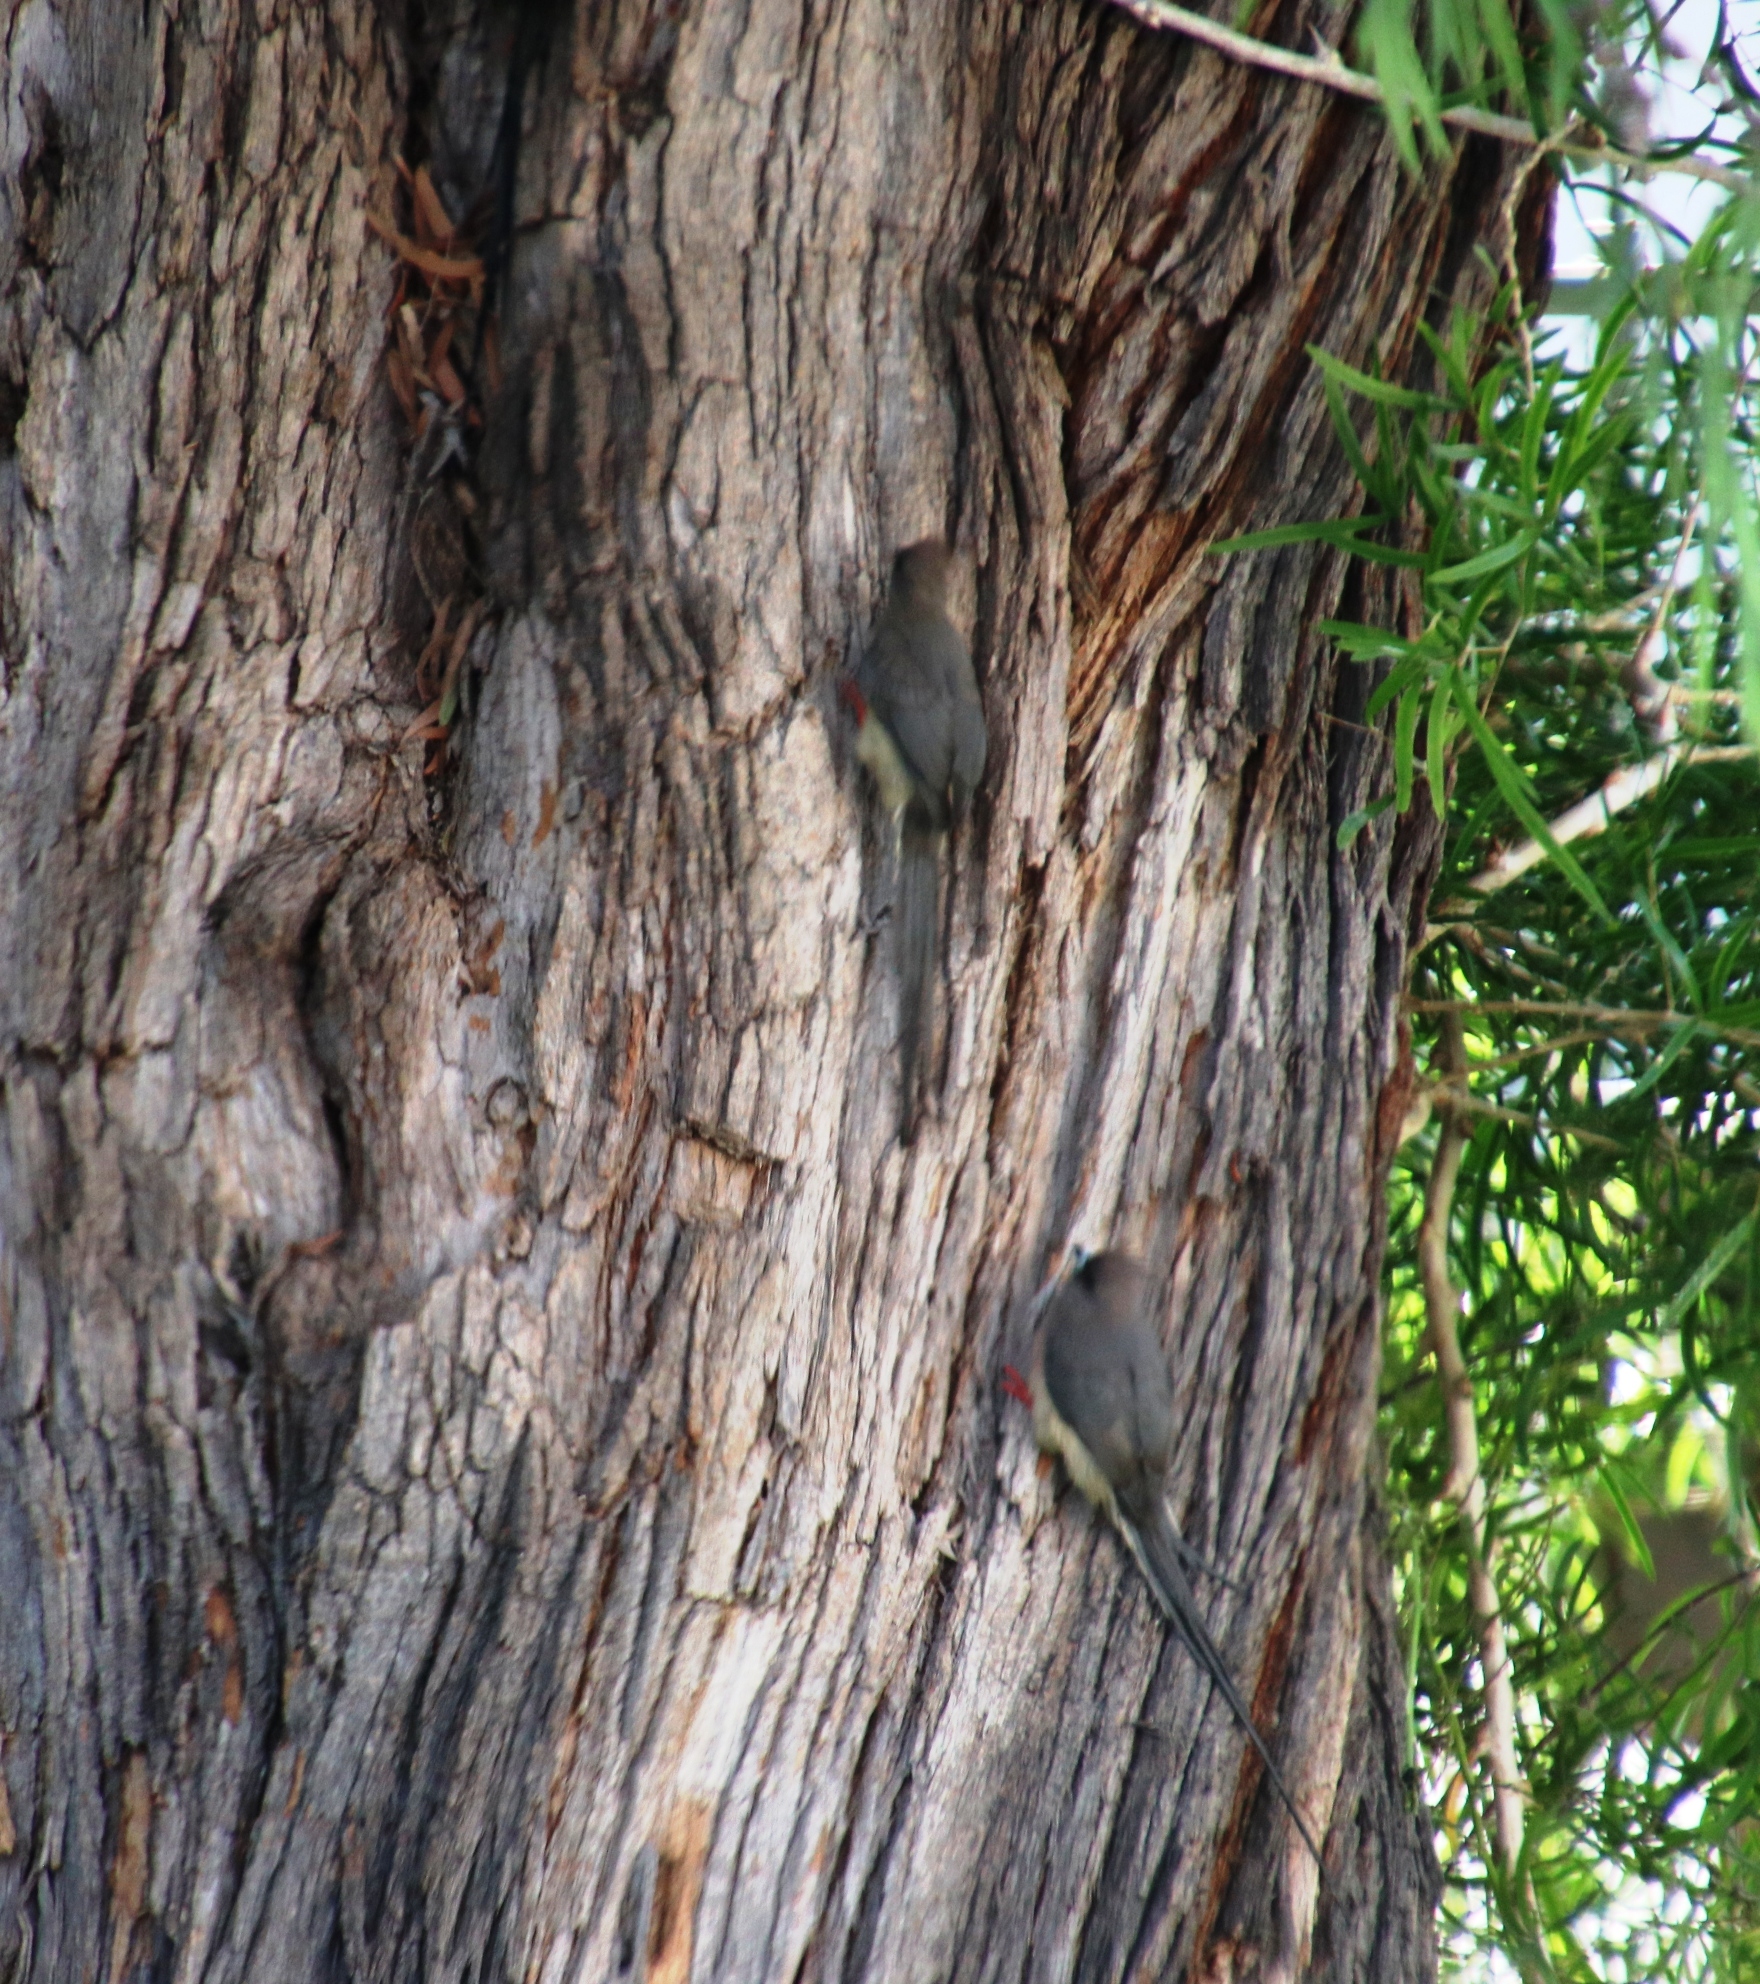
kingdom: Animalia
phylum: Chordata
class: Aves
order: Coliiformes
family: Coliidae
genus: Colius
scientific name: Colius colius
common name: White-backed mousebird
